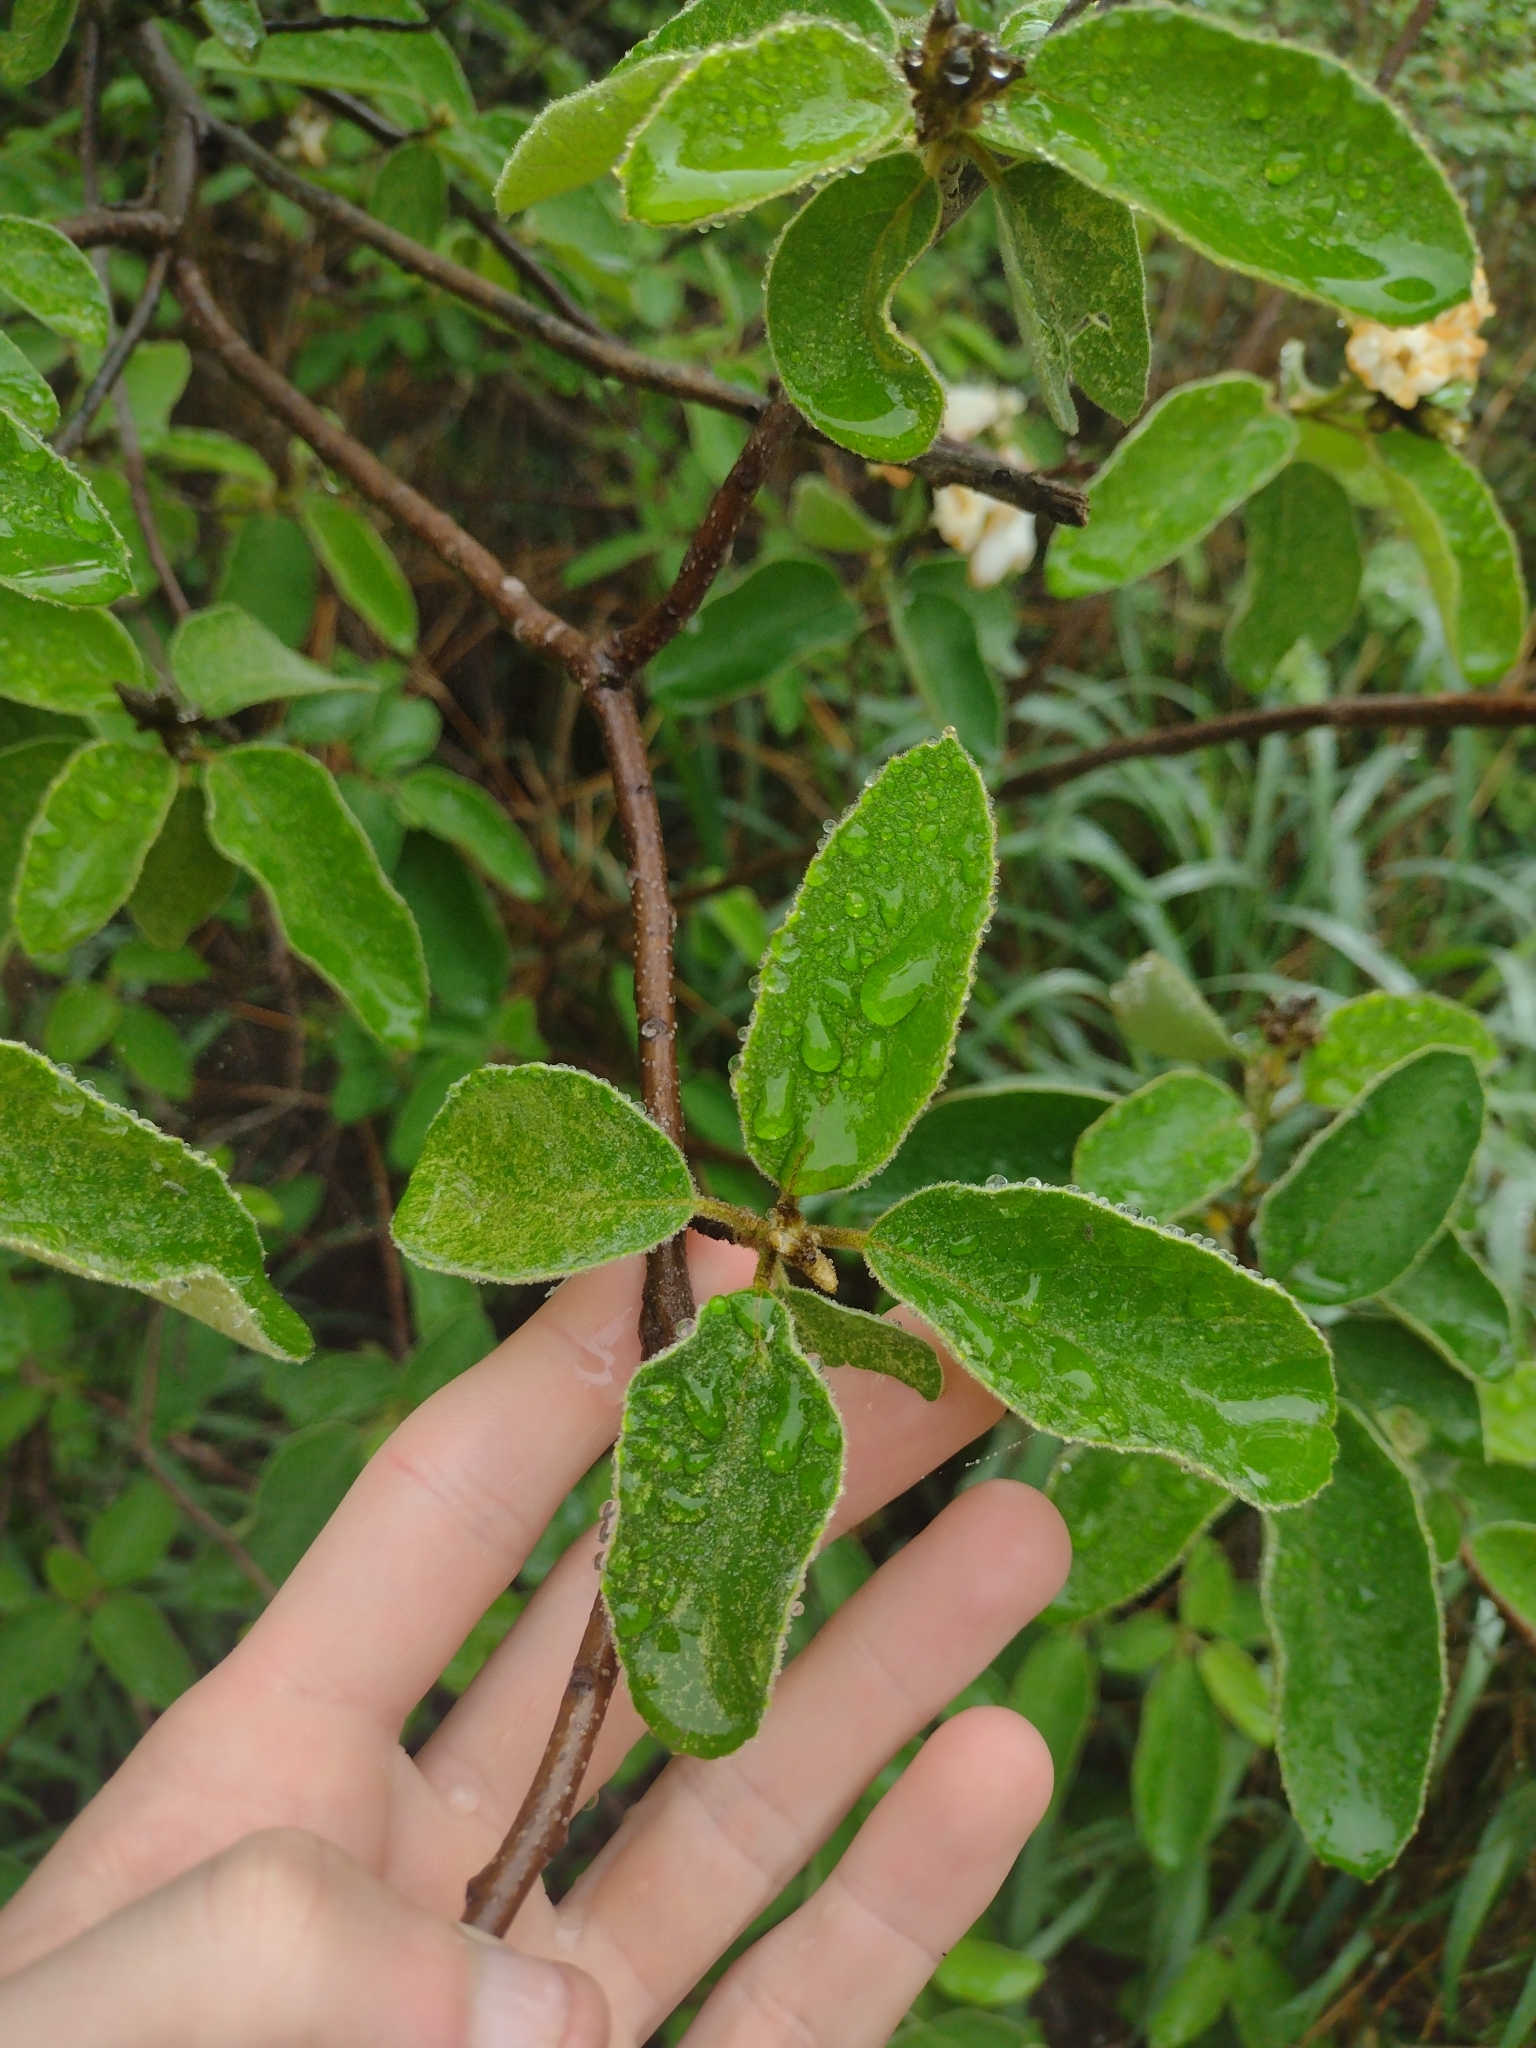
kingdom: Plantae
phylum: Tracheophyta
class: Magnoliopsida
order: Boraginales
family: Cordiaceae
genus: Cordia
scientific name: Cordia boissieri
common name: Mexican-olive
